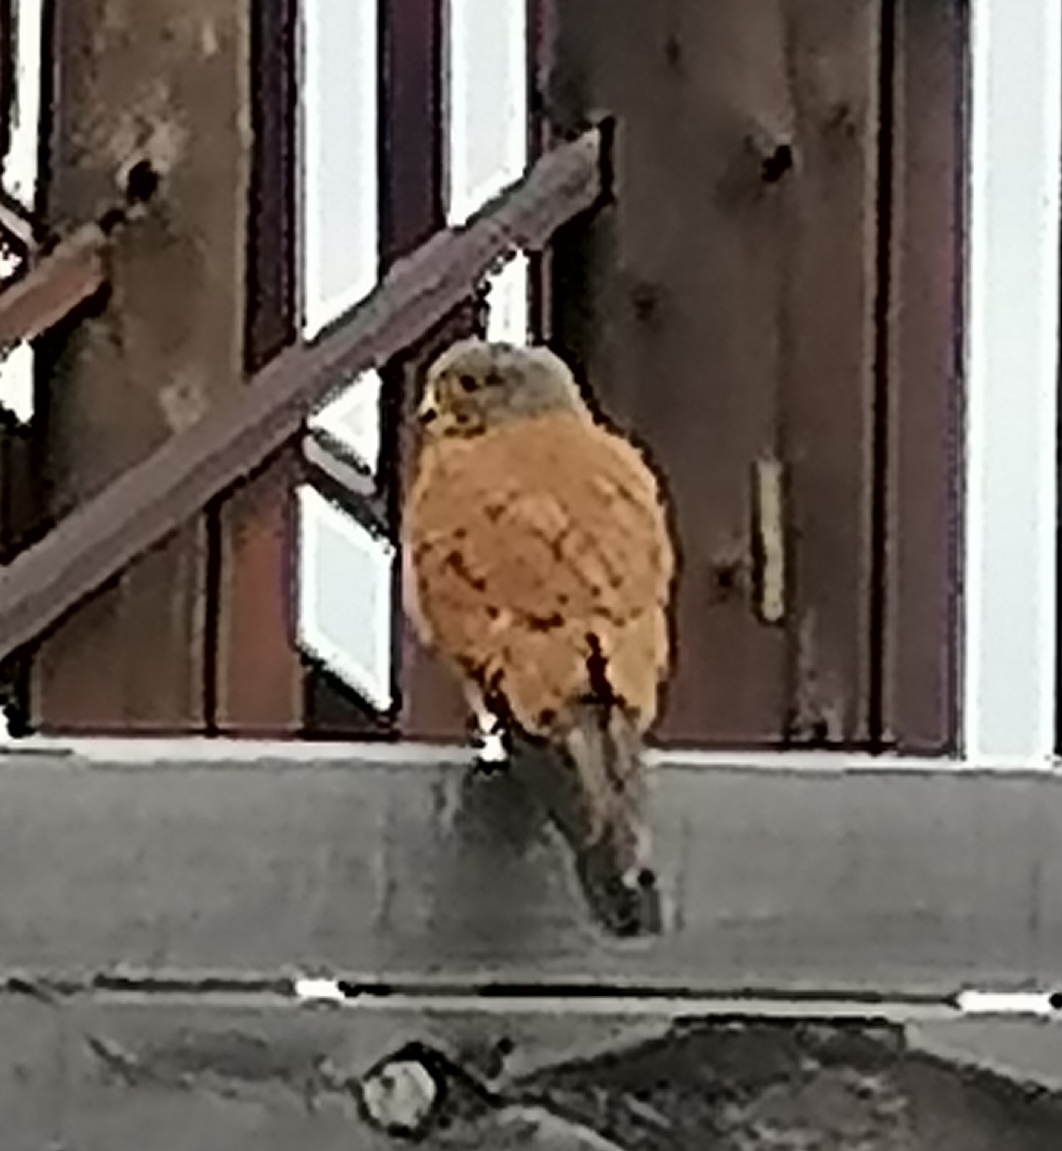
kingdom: Animalia
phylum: Chordata
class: Aves
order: Falconiformes
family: Falconidae
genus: Falco
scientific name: Falco rupicolus
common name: Rock kestrel
